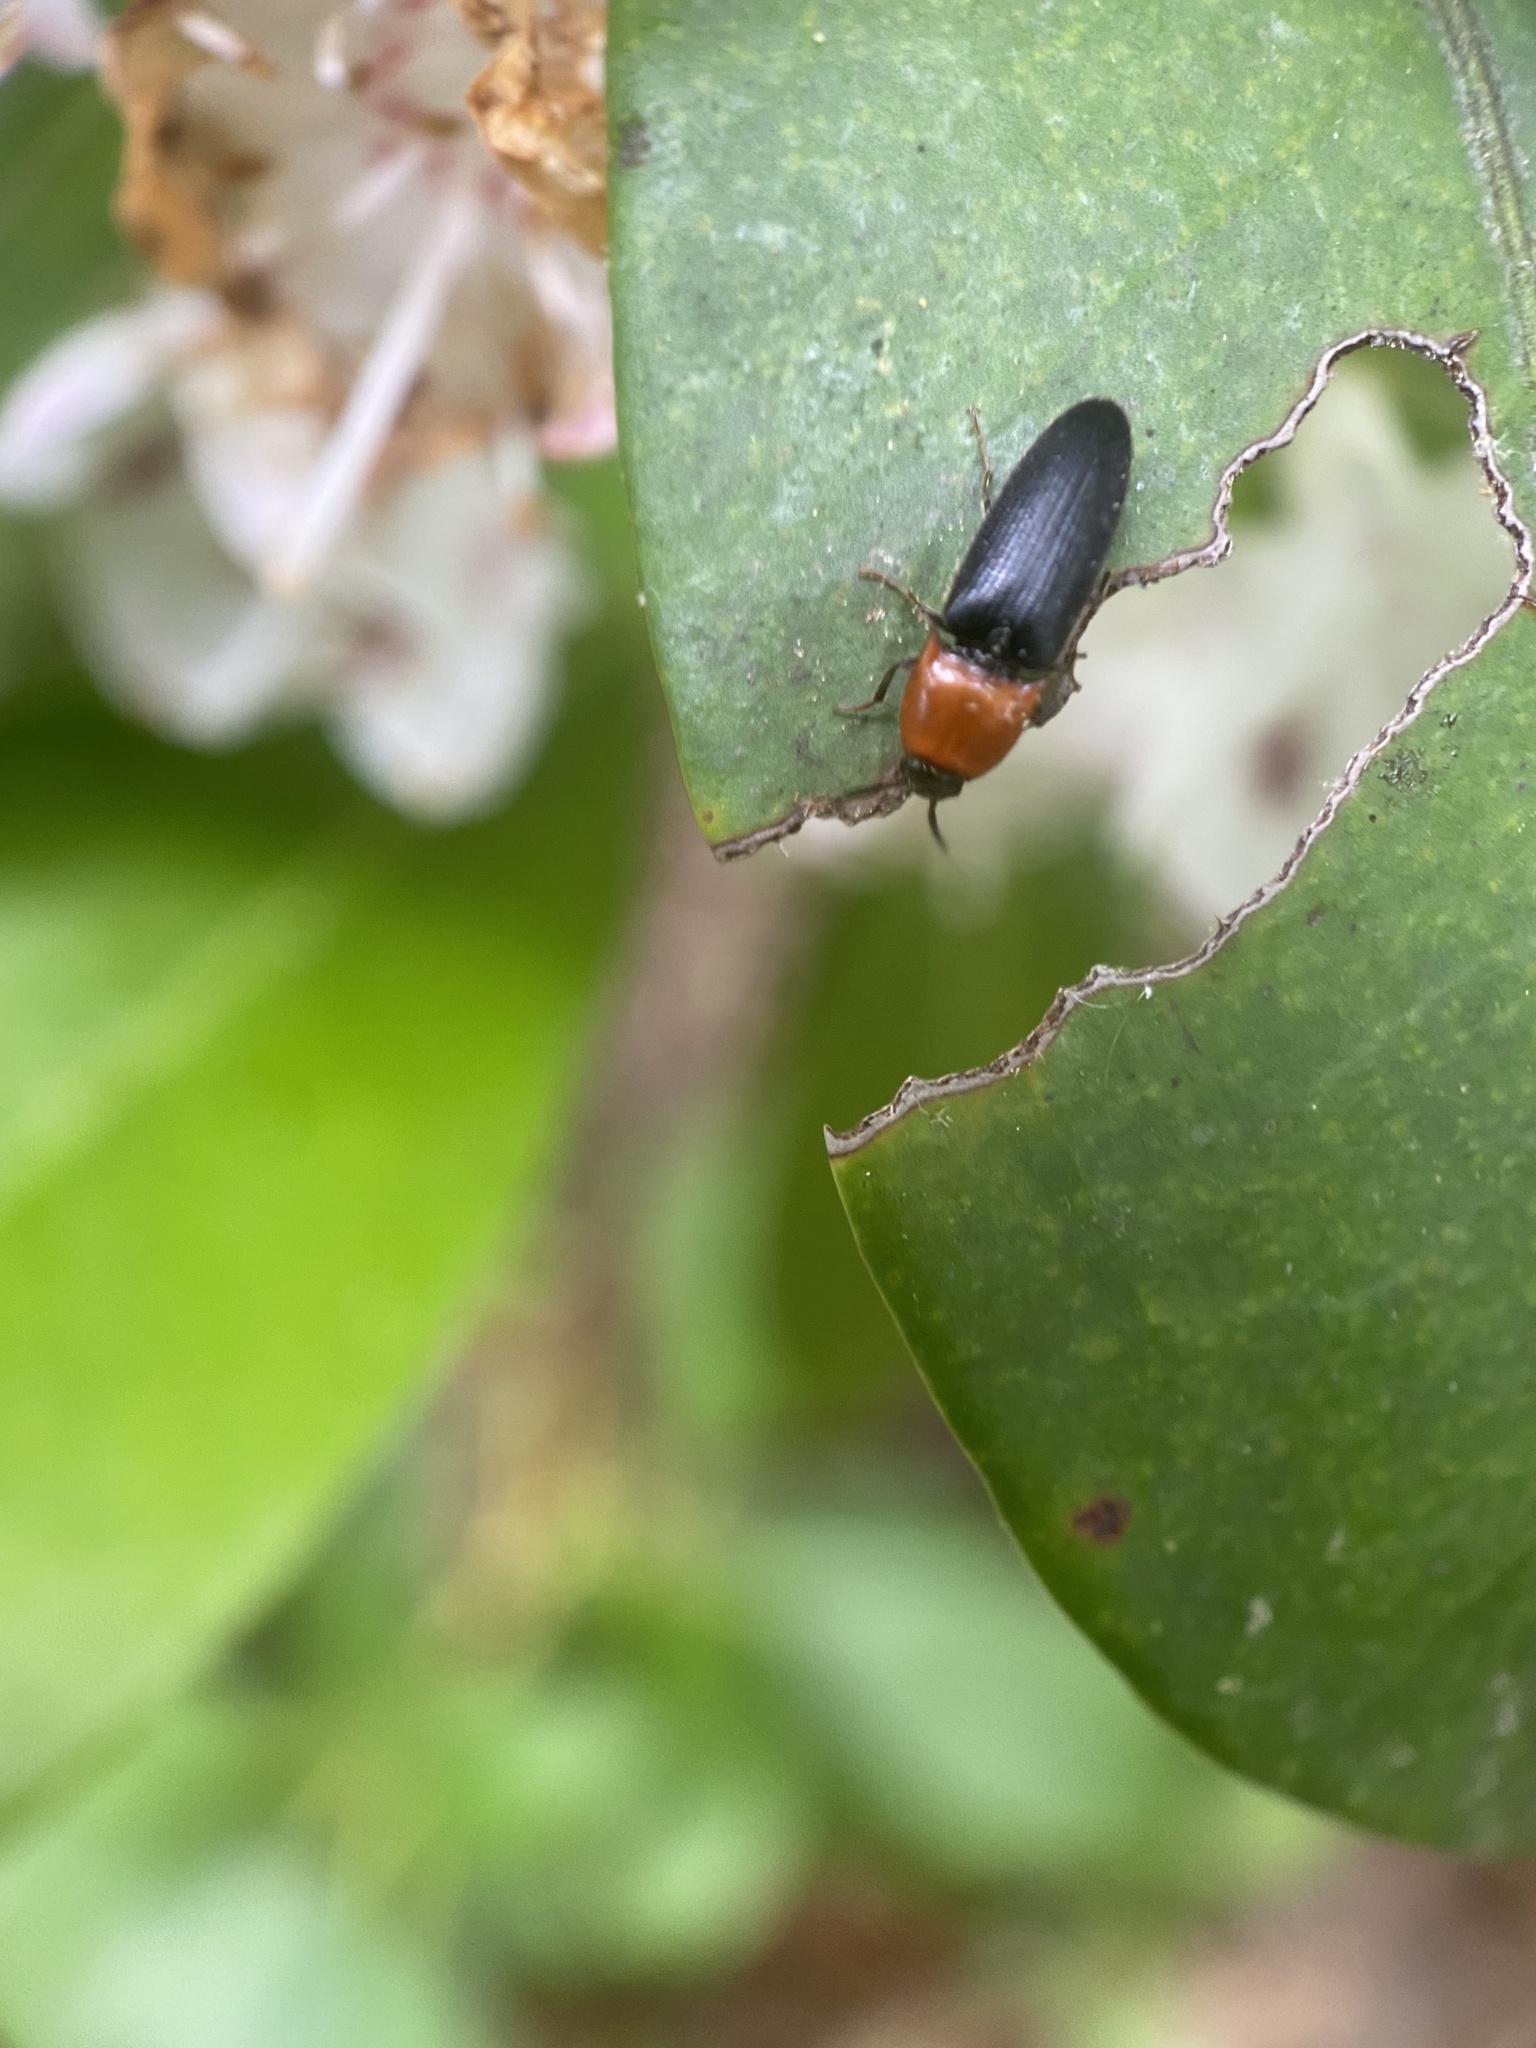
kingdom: Animalia
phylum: Arthropoda
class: Insecta
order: Coleoptera
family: Elateridae
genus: Ampedus
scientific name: Ampedus collaris
